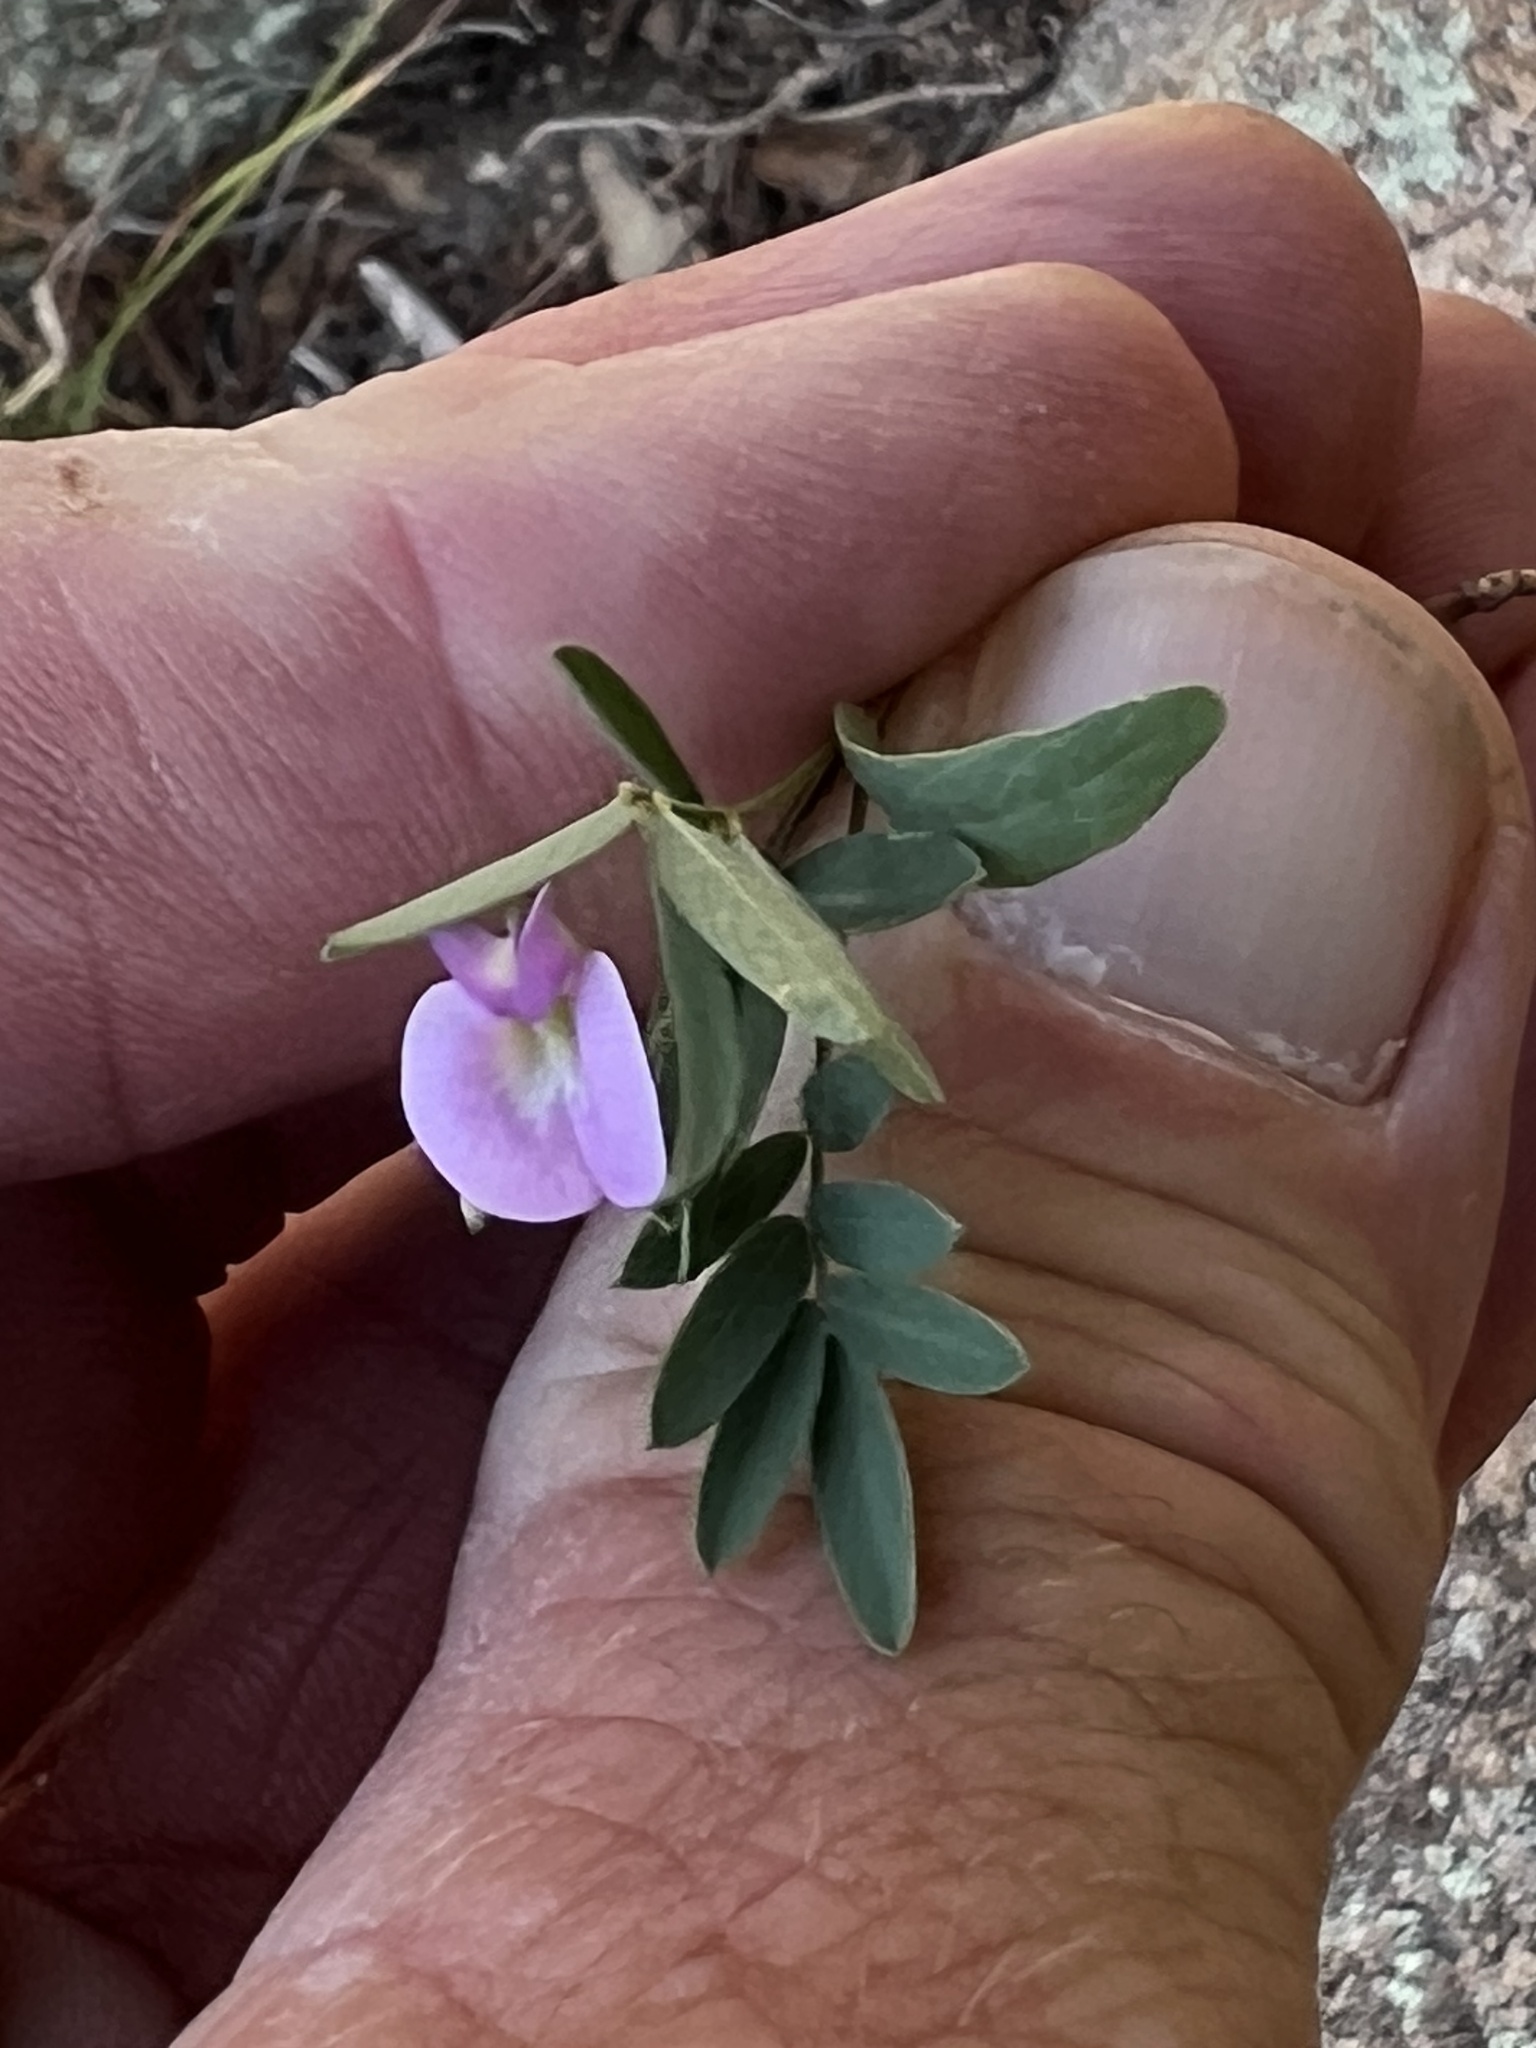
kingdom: Plantae
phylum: Tracheophyta
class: Magnoliopsida
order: Fabales
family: Fabaceae
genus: Tephrosia
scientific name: Tephrosia vicioides
